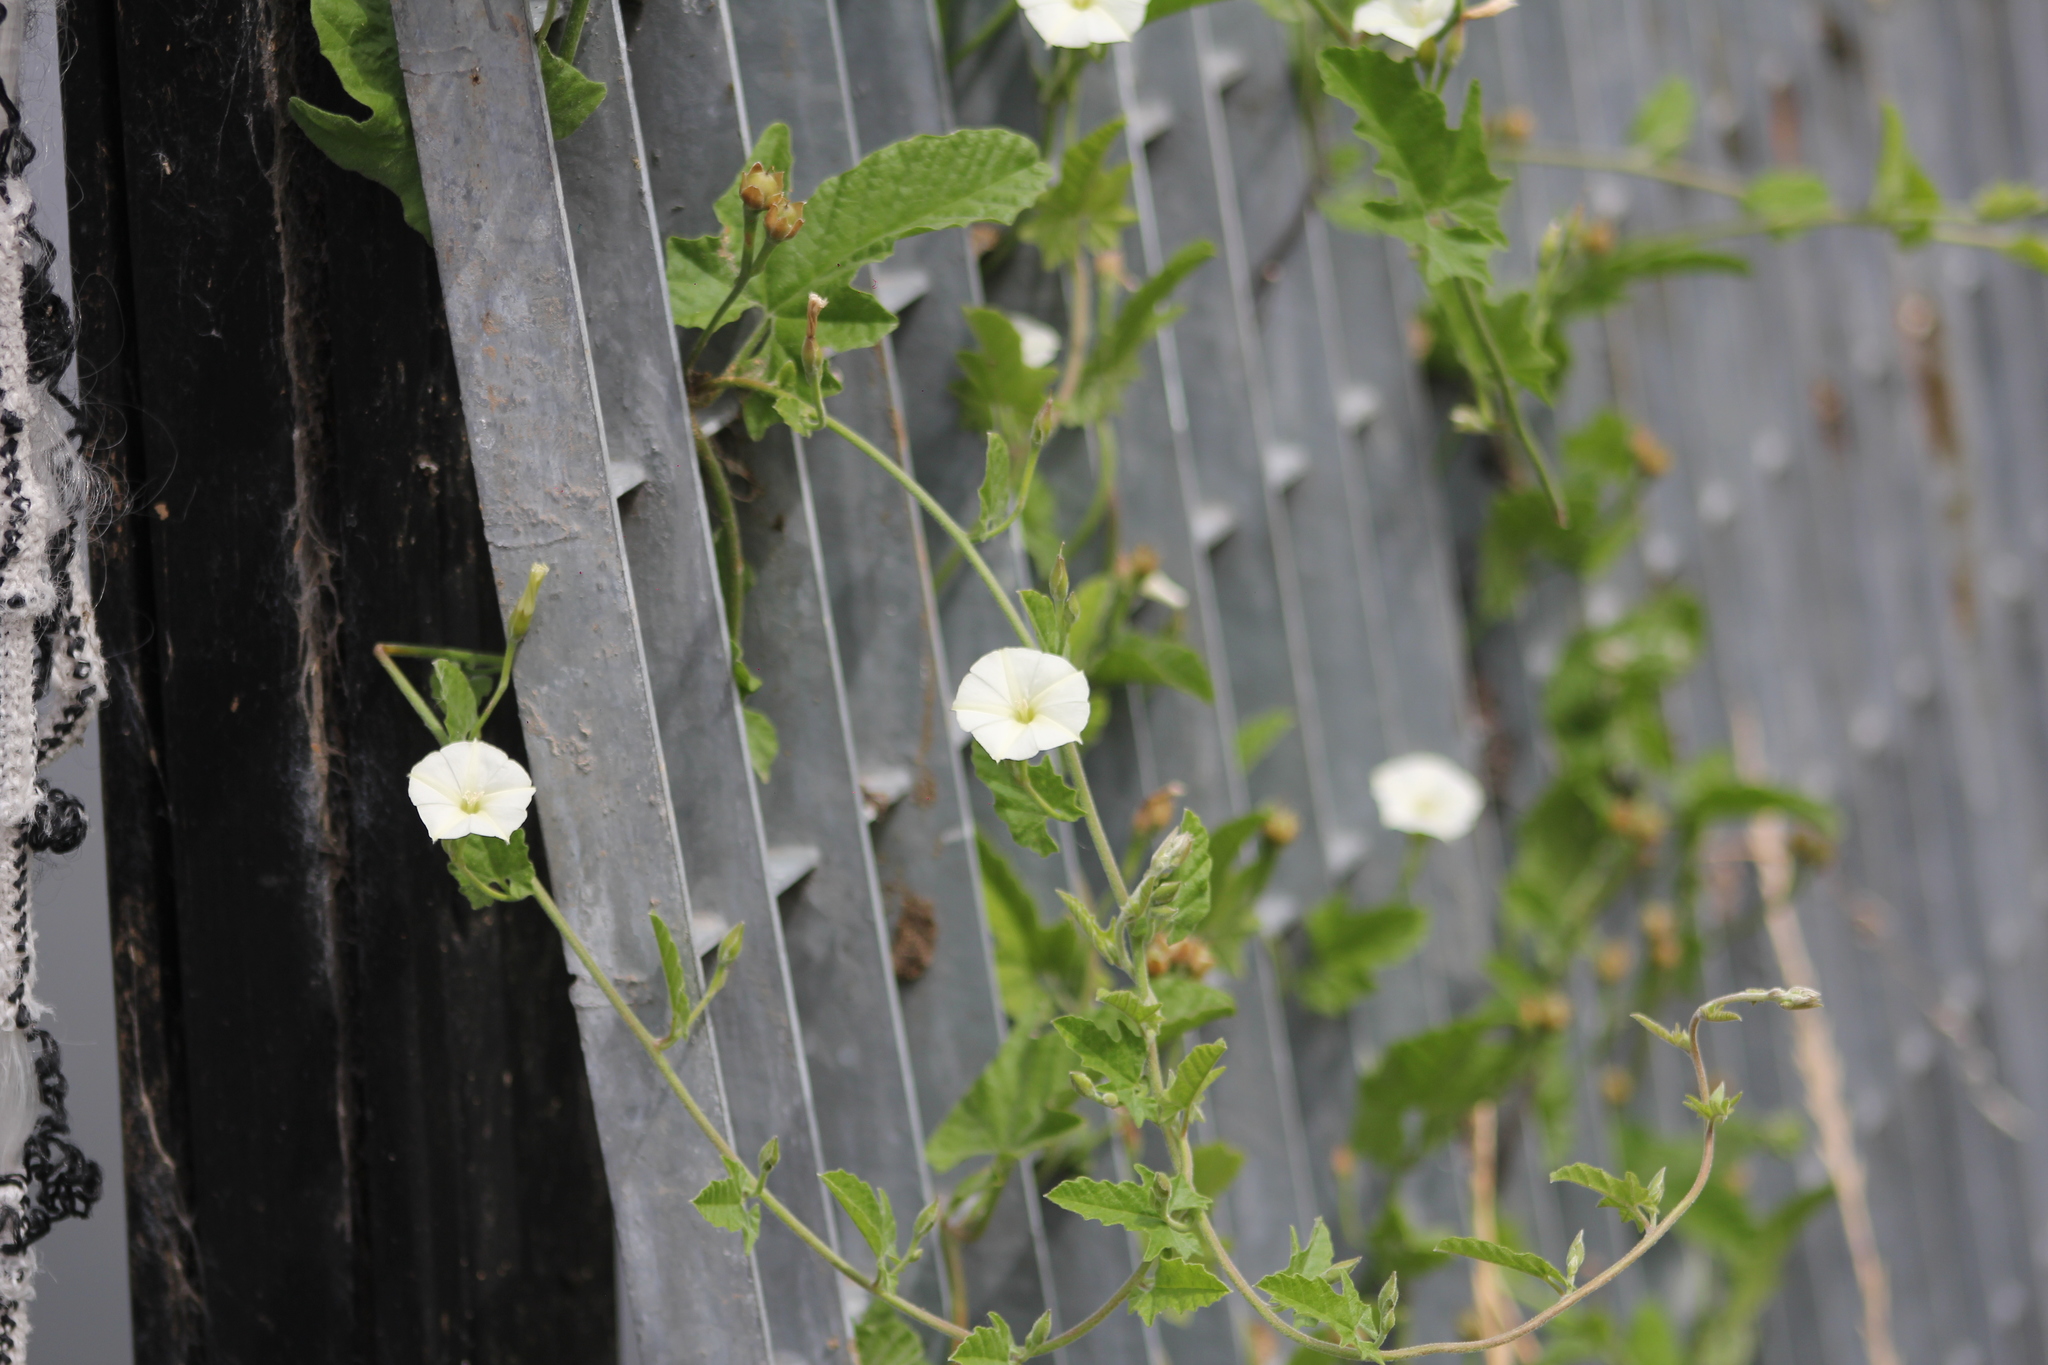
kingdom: Plantae
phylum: Tracheophyta
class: Magnoliopsida
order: Solanales
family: Convolvulaceae
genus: Convolvulus
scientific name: Convolvulus hermanniae
